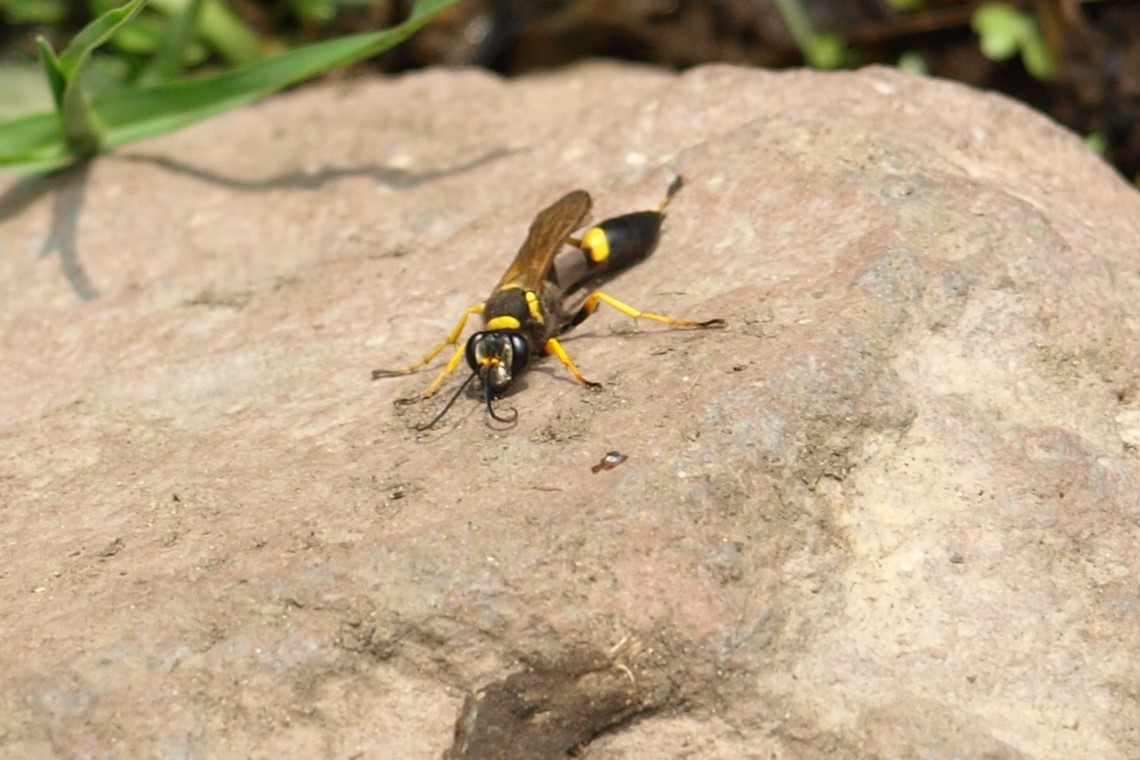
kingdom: Animalia
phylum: Arthropoda
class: Insecta
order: Hymenoptera
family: Sphecidae
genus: Sceliphron
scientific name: Sceliphron caementarium
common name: Mud dauber
